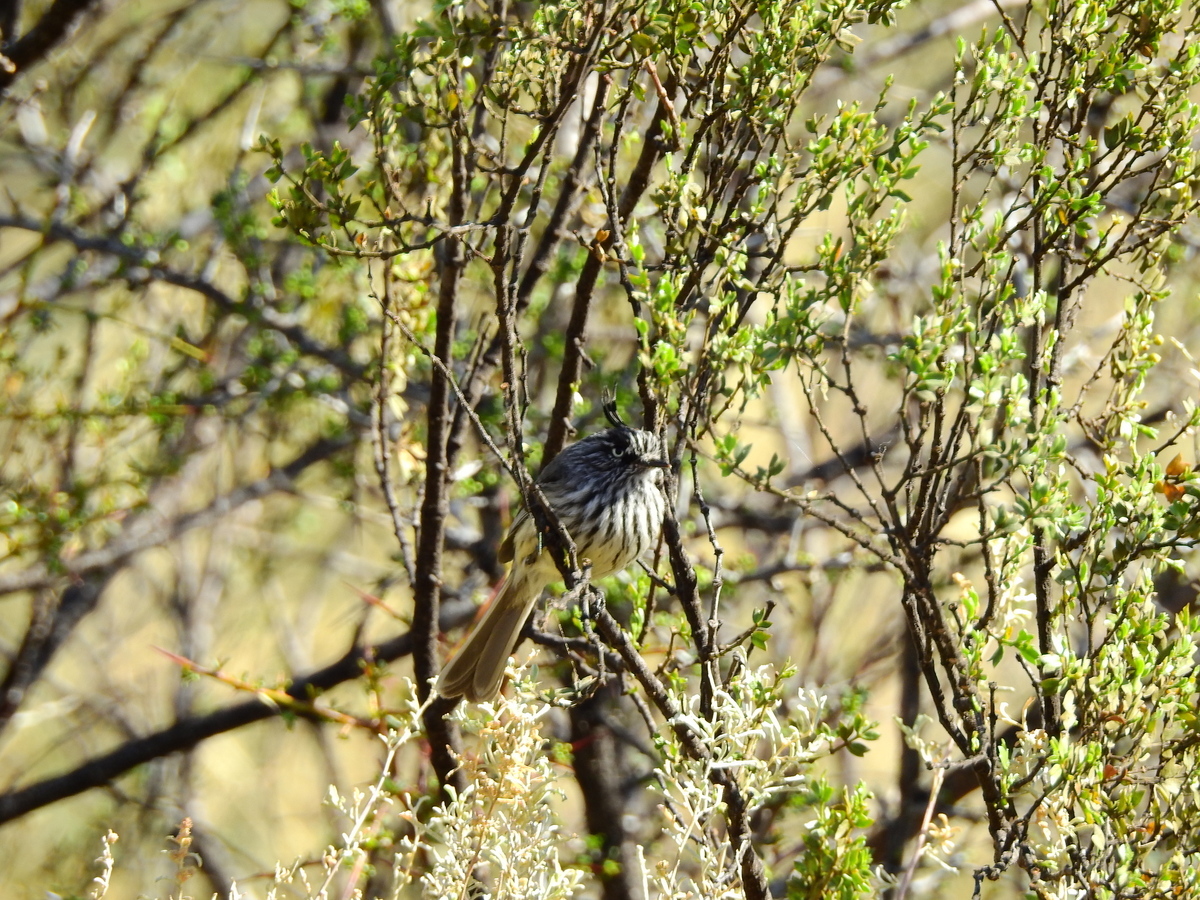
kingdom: Animalia
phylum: Chordata
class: Aves
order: Passeriformes
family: Tyrannidae
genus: Anairetes
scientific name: Anairetes parulus
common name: Tufted tit-tyrant
